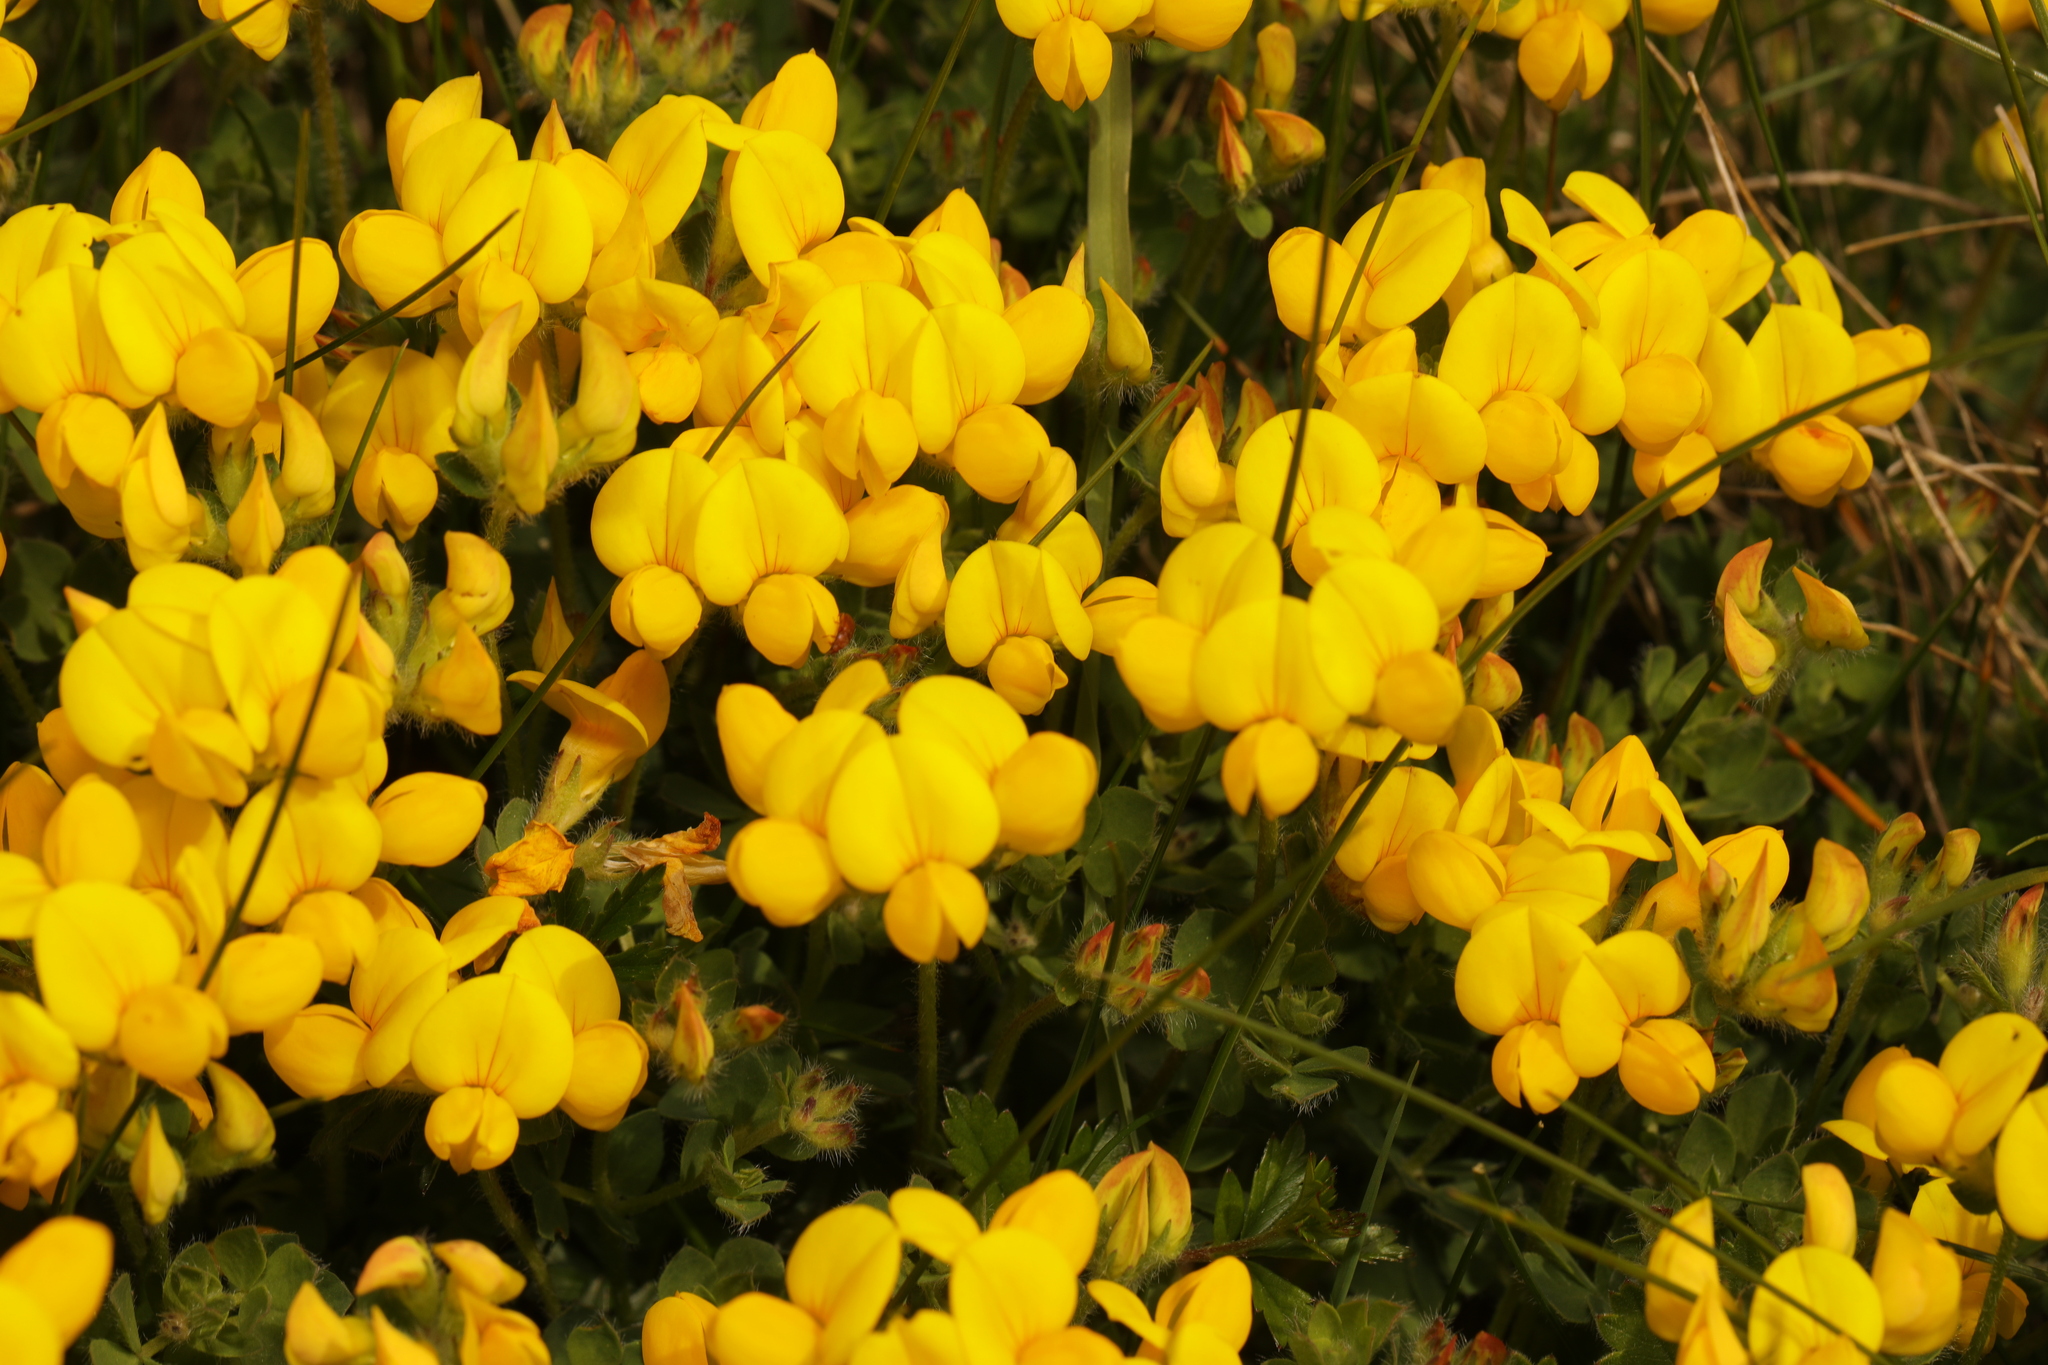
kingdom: Plantae
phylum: Tracheophyta
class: Magnoliopsida
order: Fabales
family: Fabaceae
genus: Lotus
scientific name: Lotus corniculatus
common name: Common bird's-foot-trefoil
